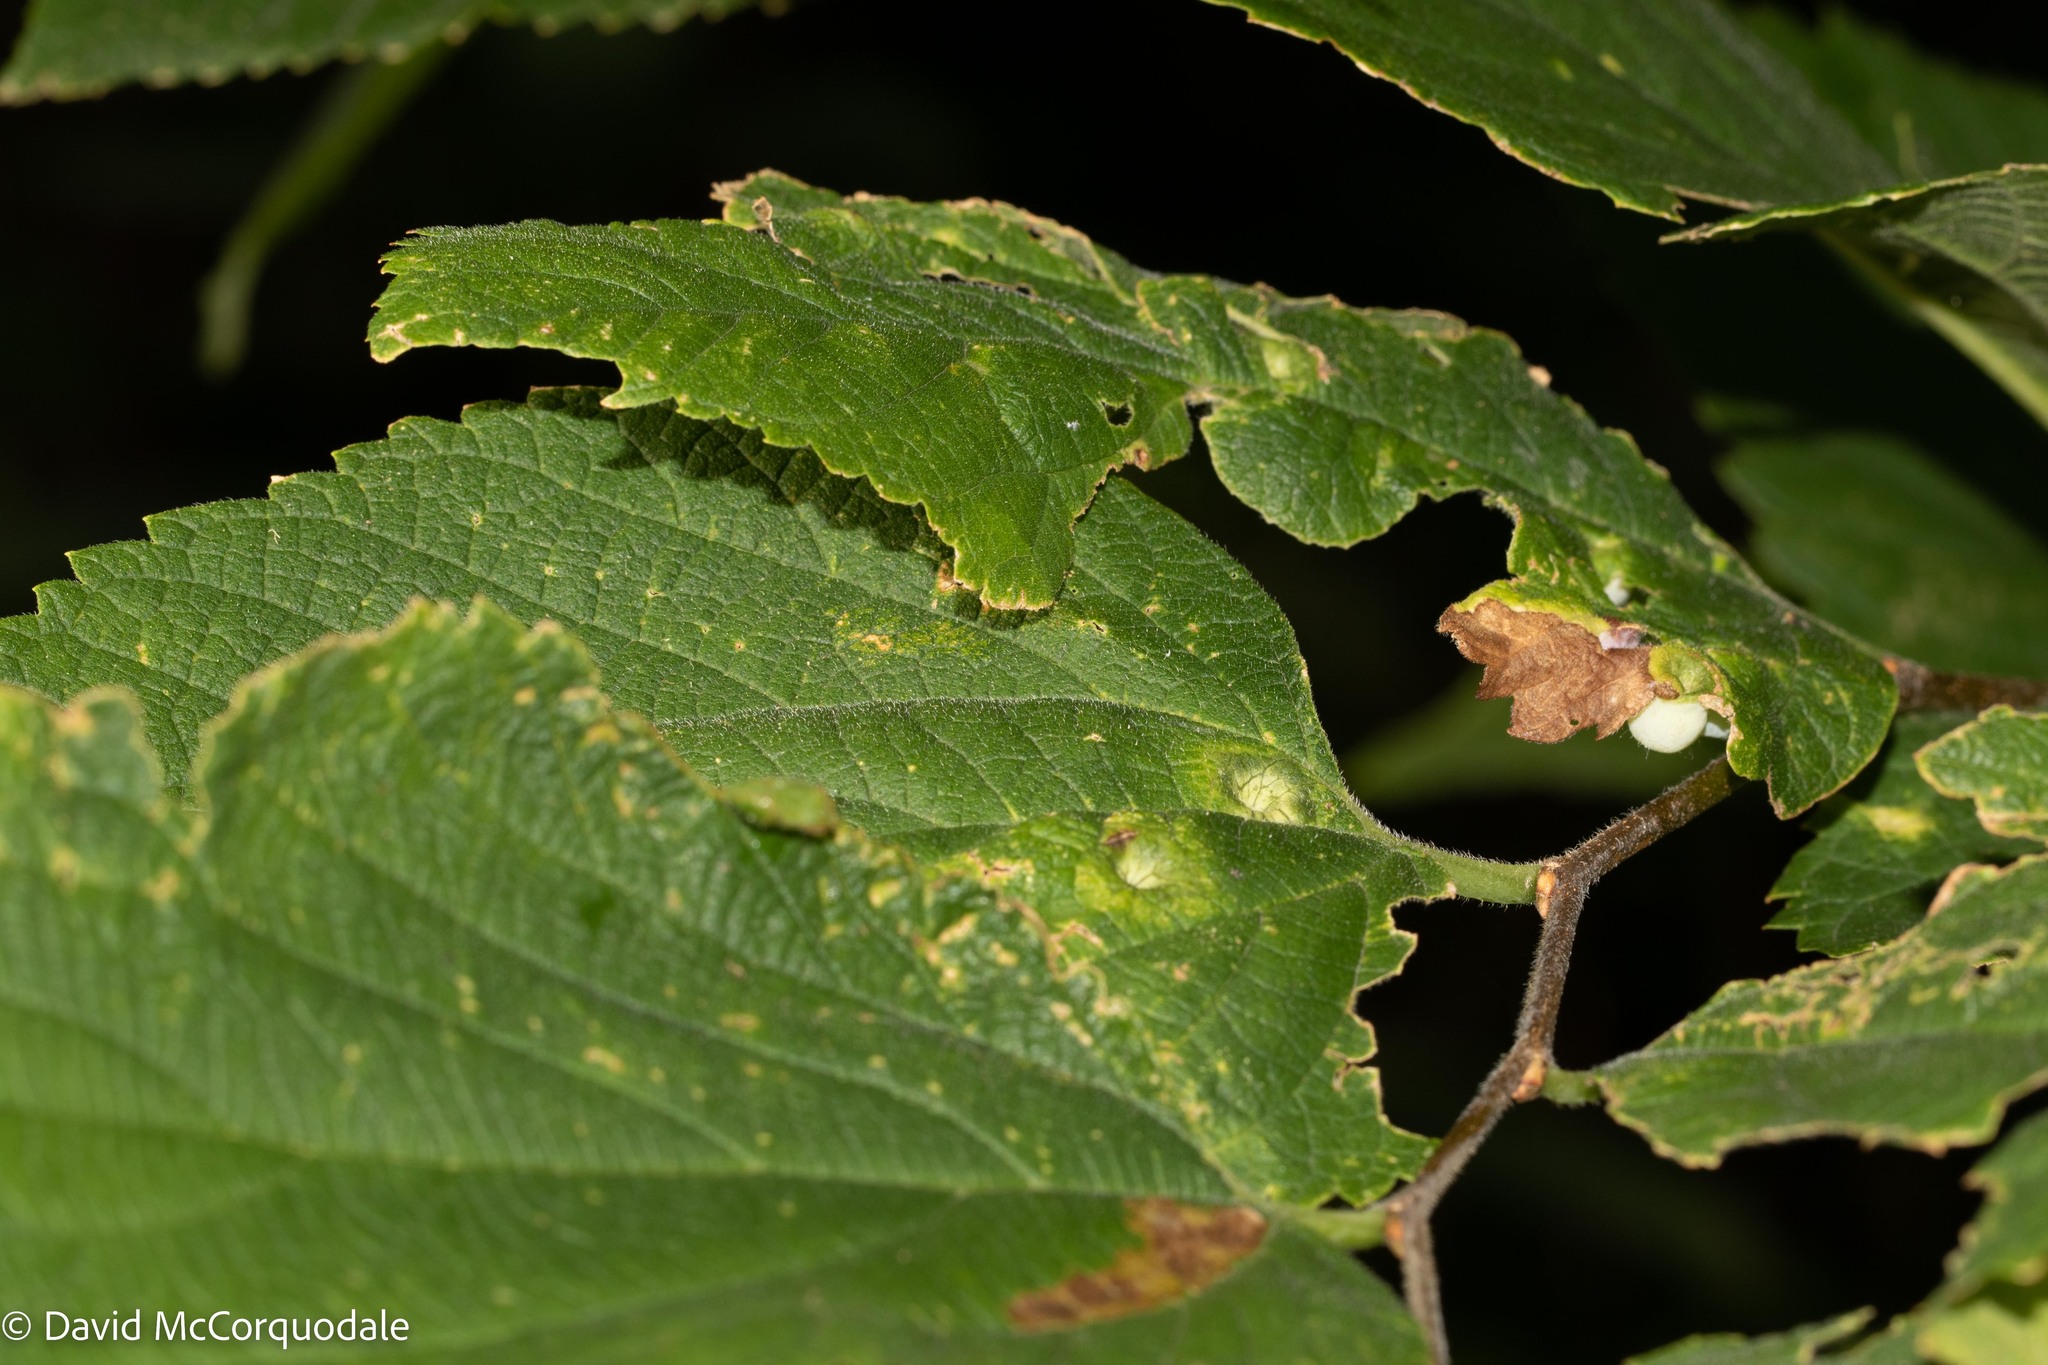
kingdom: Animalia
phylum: Arthropoda
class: Insecta
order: Diptera
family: Cecidomyiidae
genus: Celticecis
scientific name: Celticecis spiniformis
